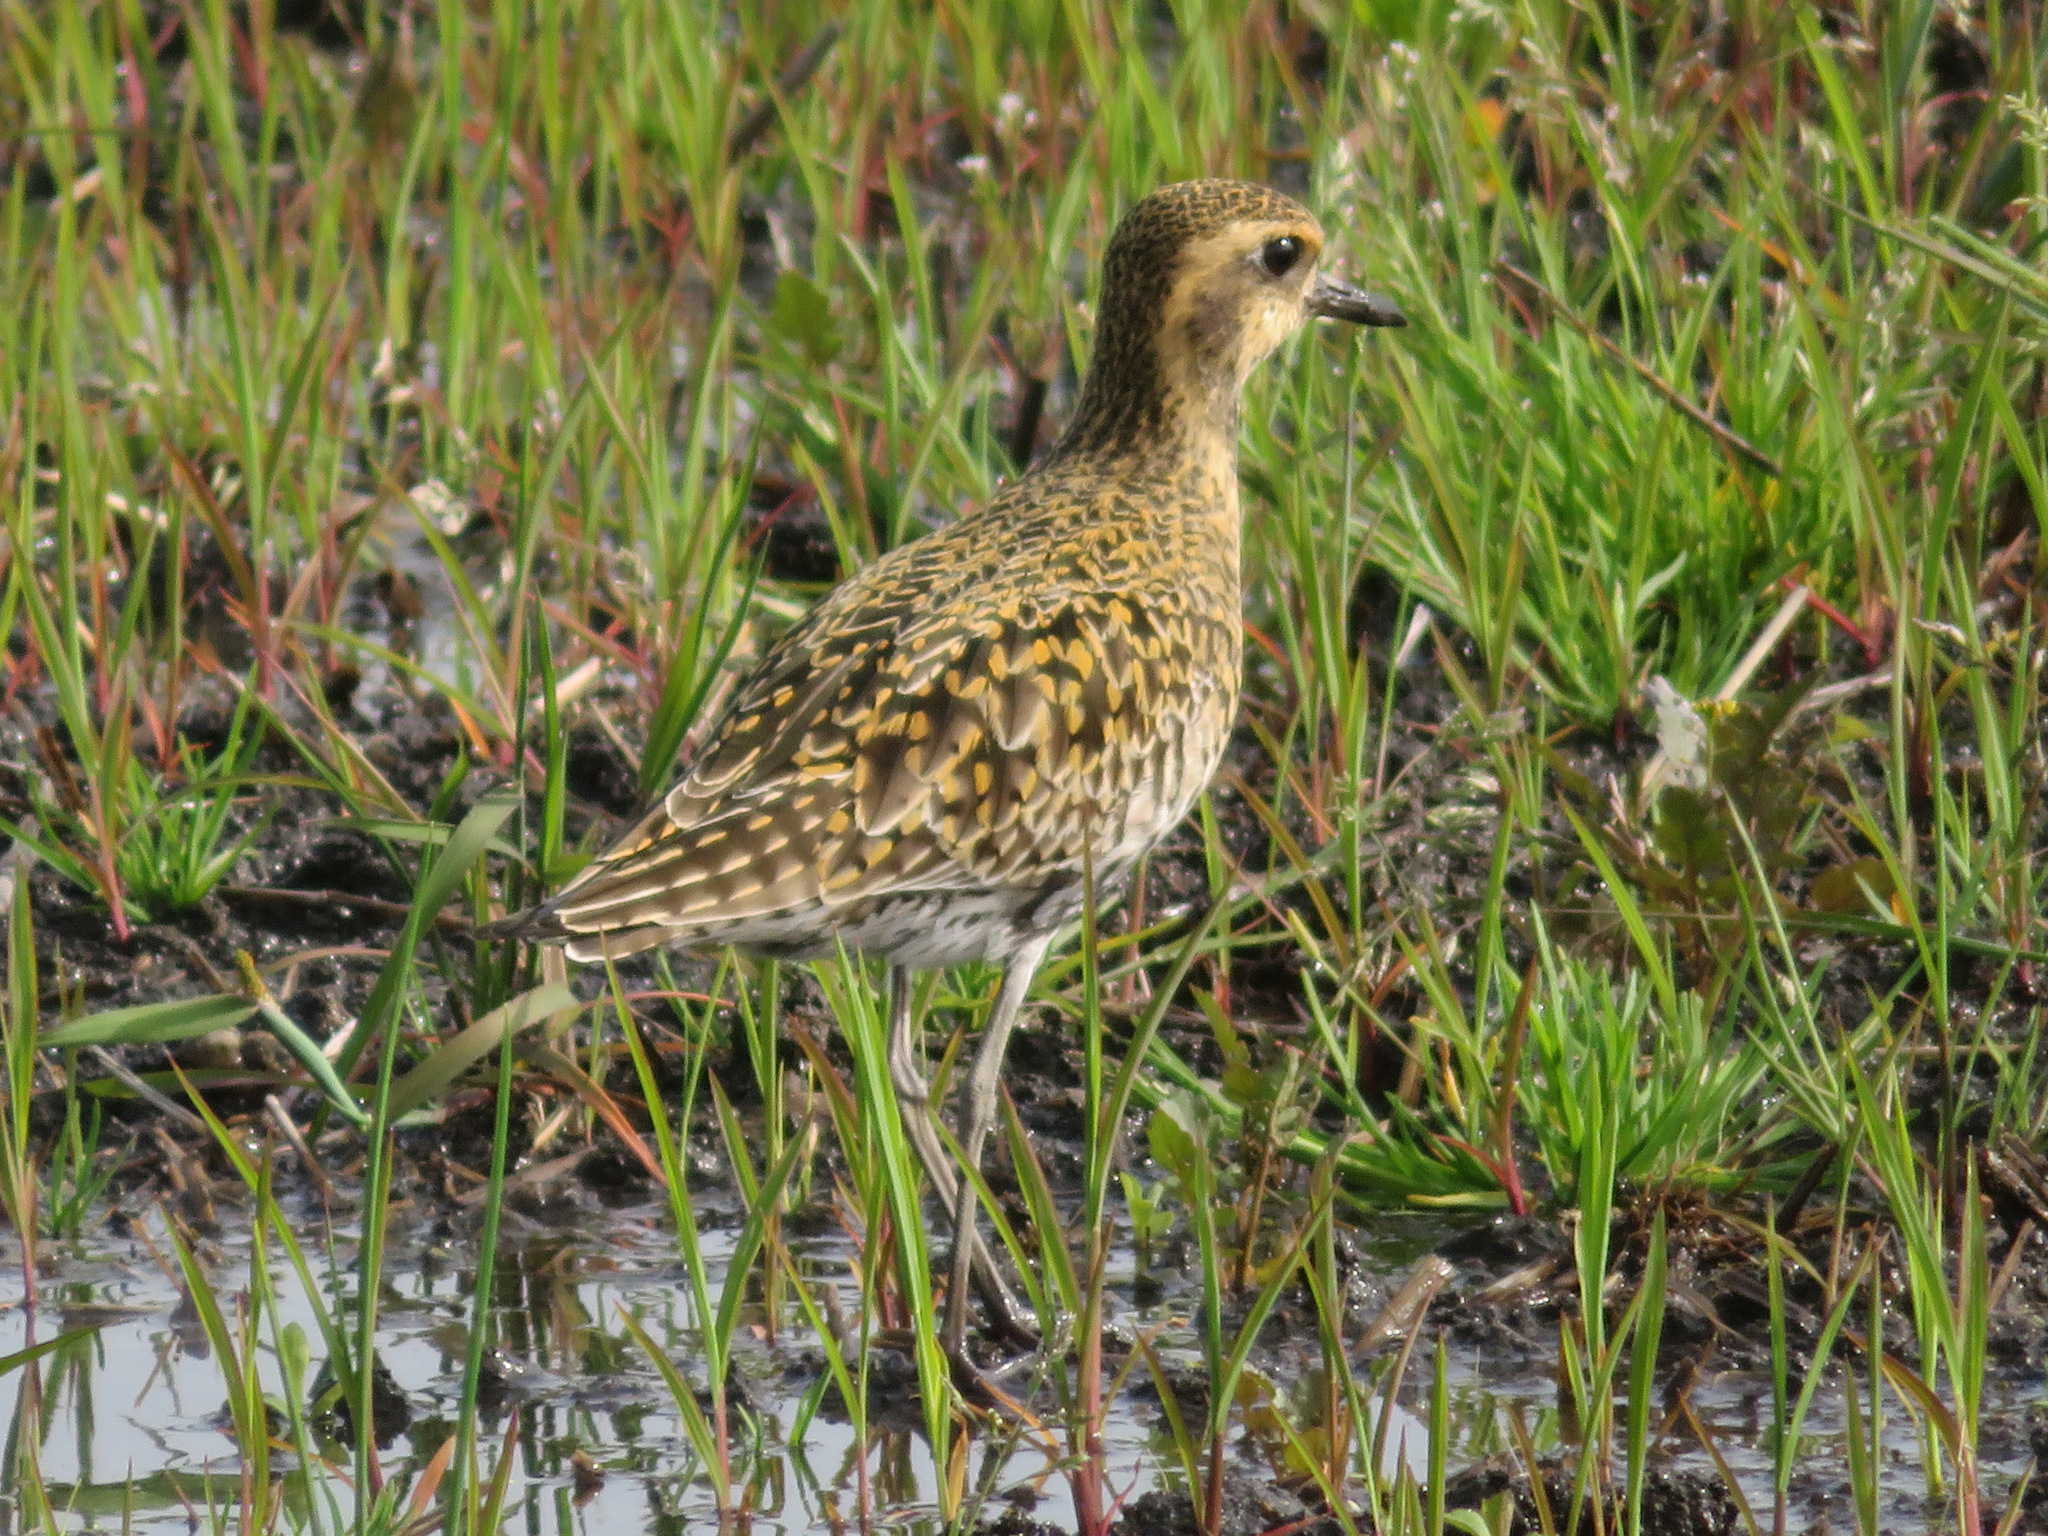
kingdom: Animalia
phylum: Chordata
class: Aves
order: Charadriiformes
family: Charadriidae
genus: Pluvialis
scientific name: Pluvialis fulva
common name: Pacific golden plover
